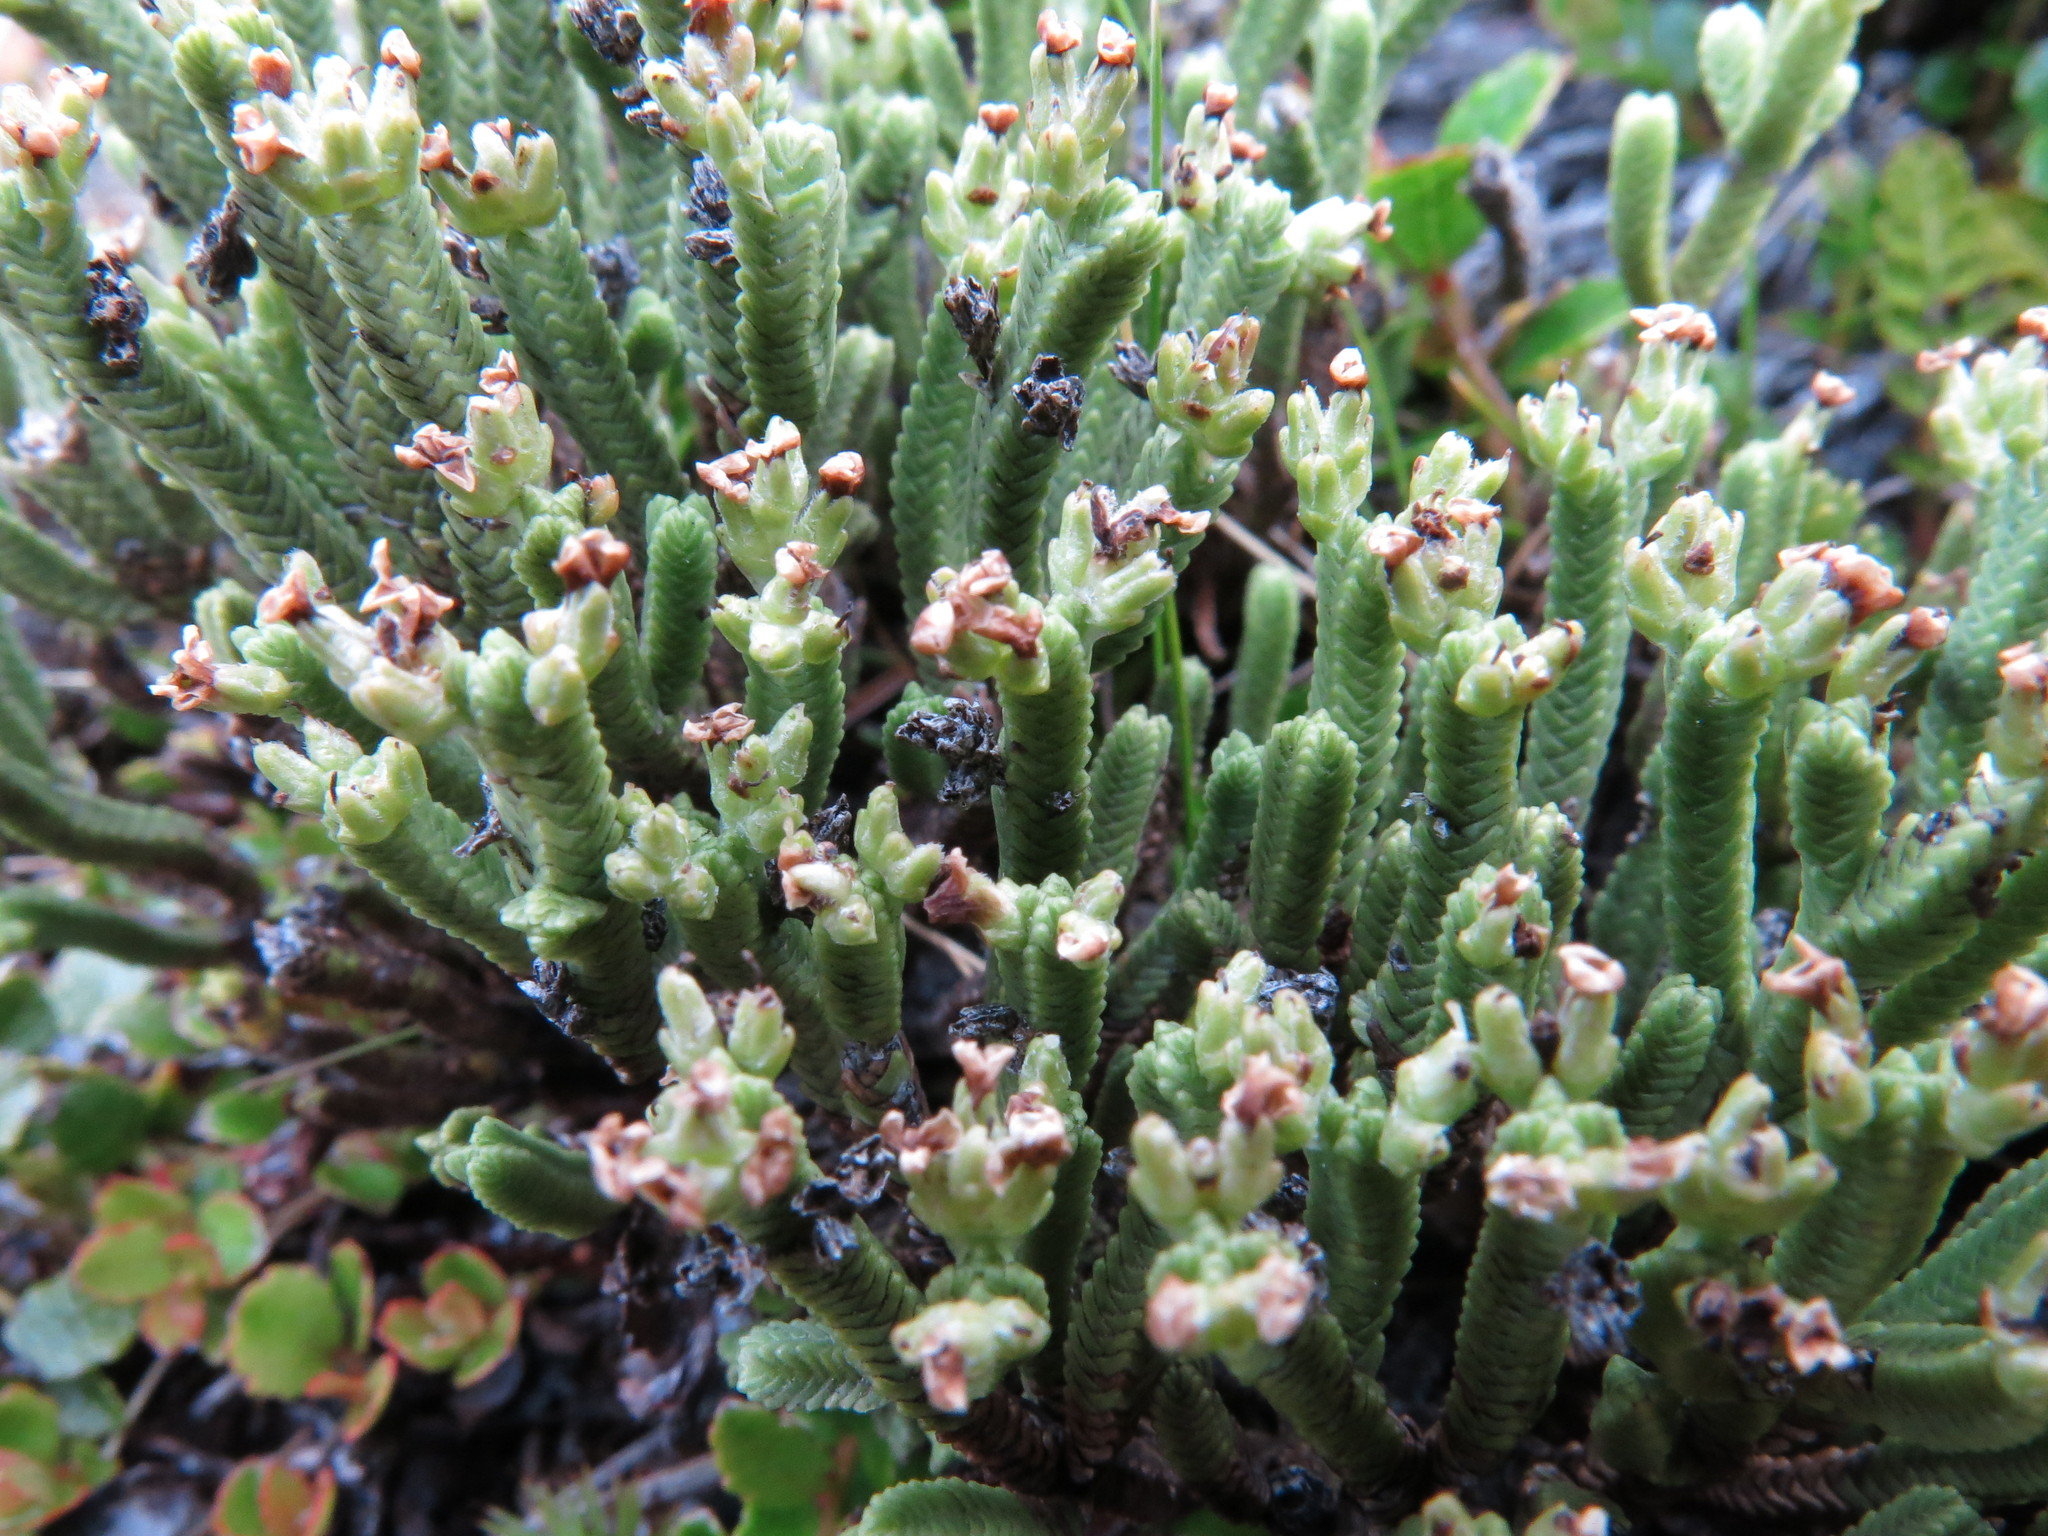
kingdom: Plantae
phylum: Tracheophyta
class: Magnoliopsida
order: Lamiales
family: Plantaginaceae
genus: Veronica
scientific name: Veronica tetrasticha
